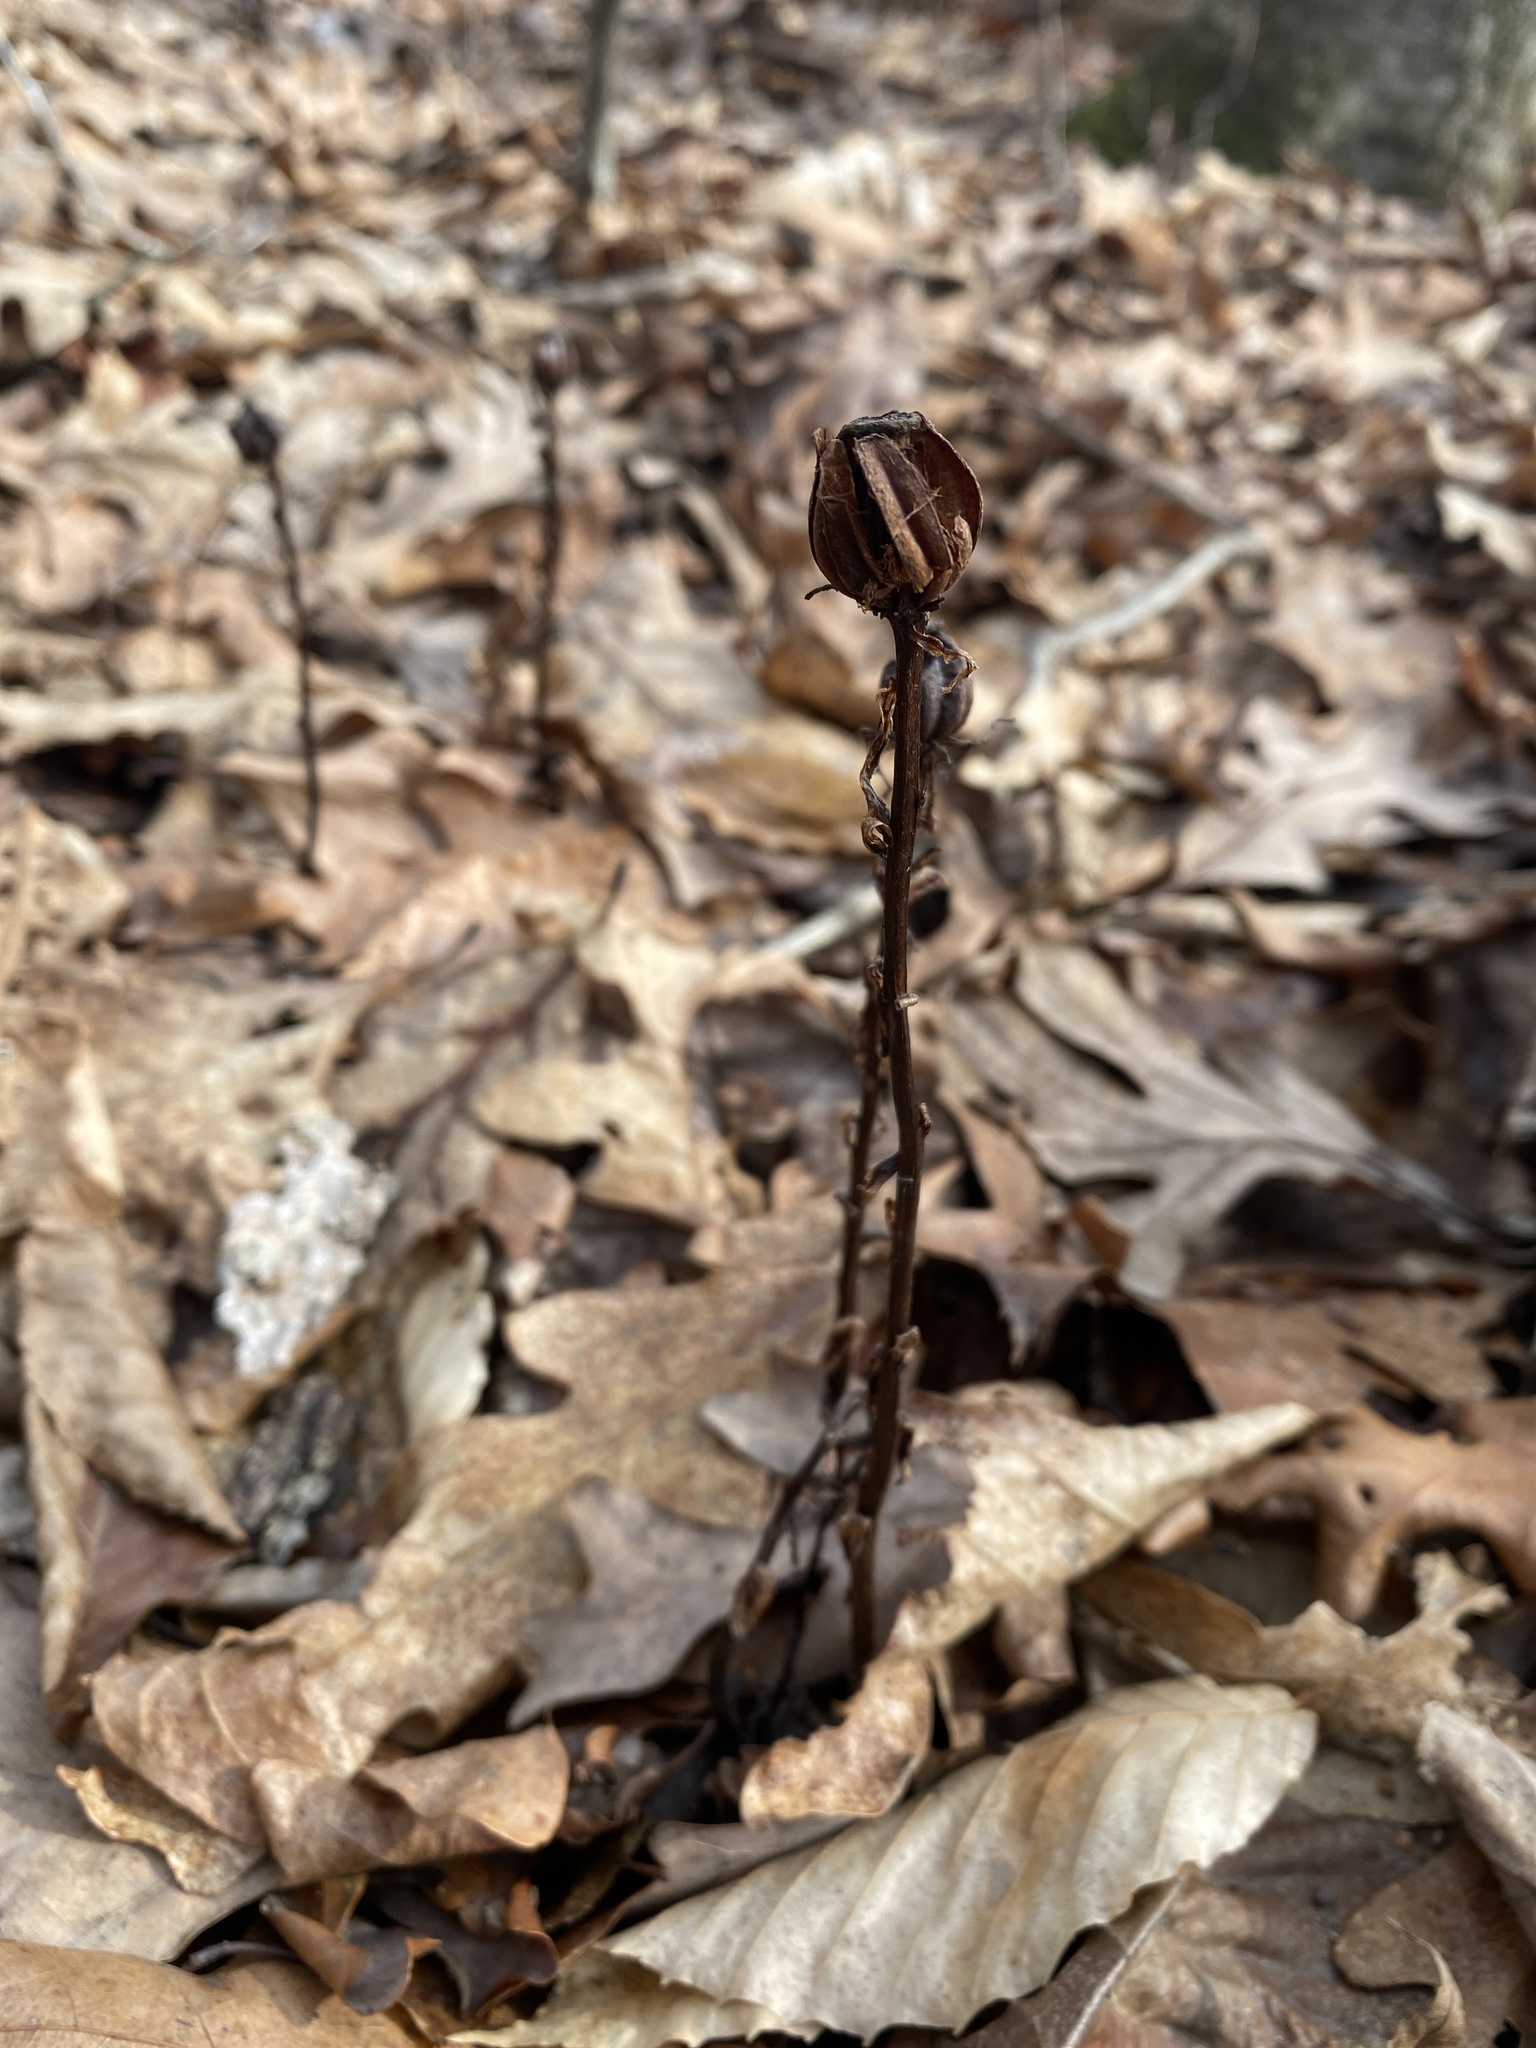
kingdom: Plantae
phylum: Tracheophyta
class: Magnoliopsida
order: Ericales
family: Ericaceae
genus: Monotropa
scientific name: Monotropa uniflora
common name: Convulsion root
